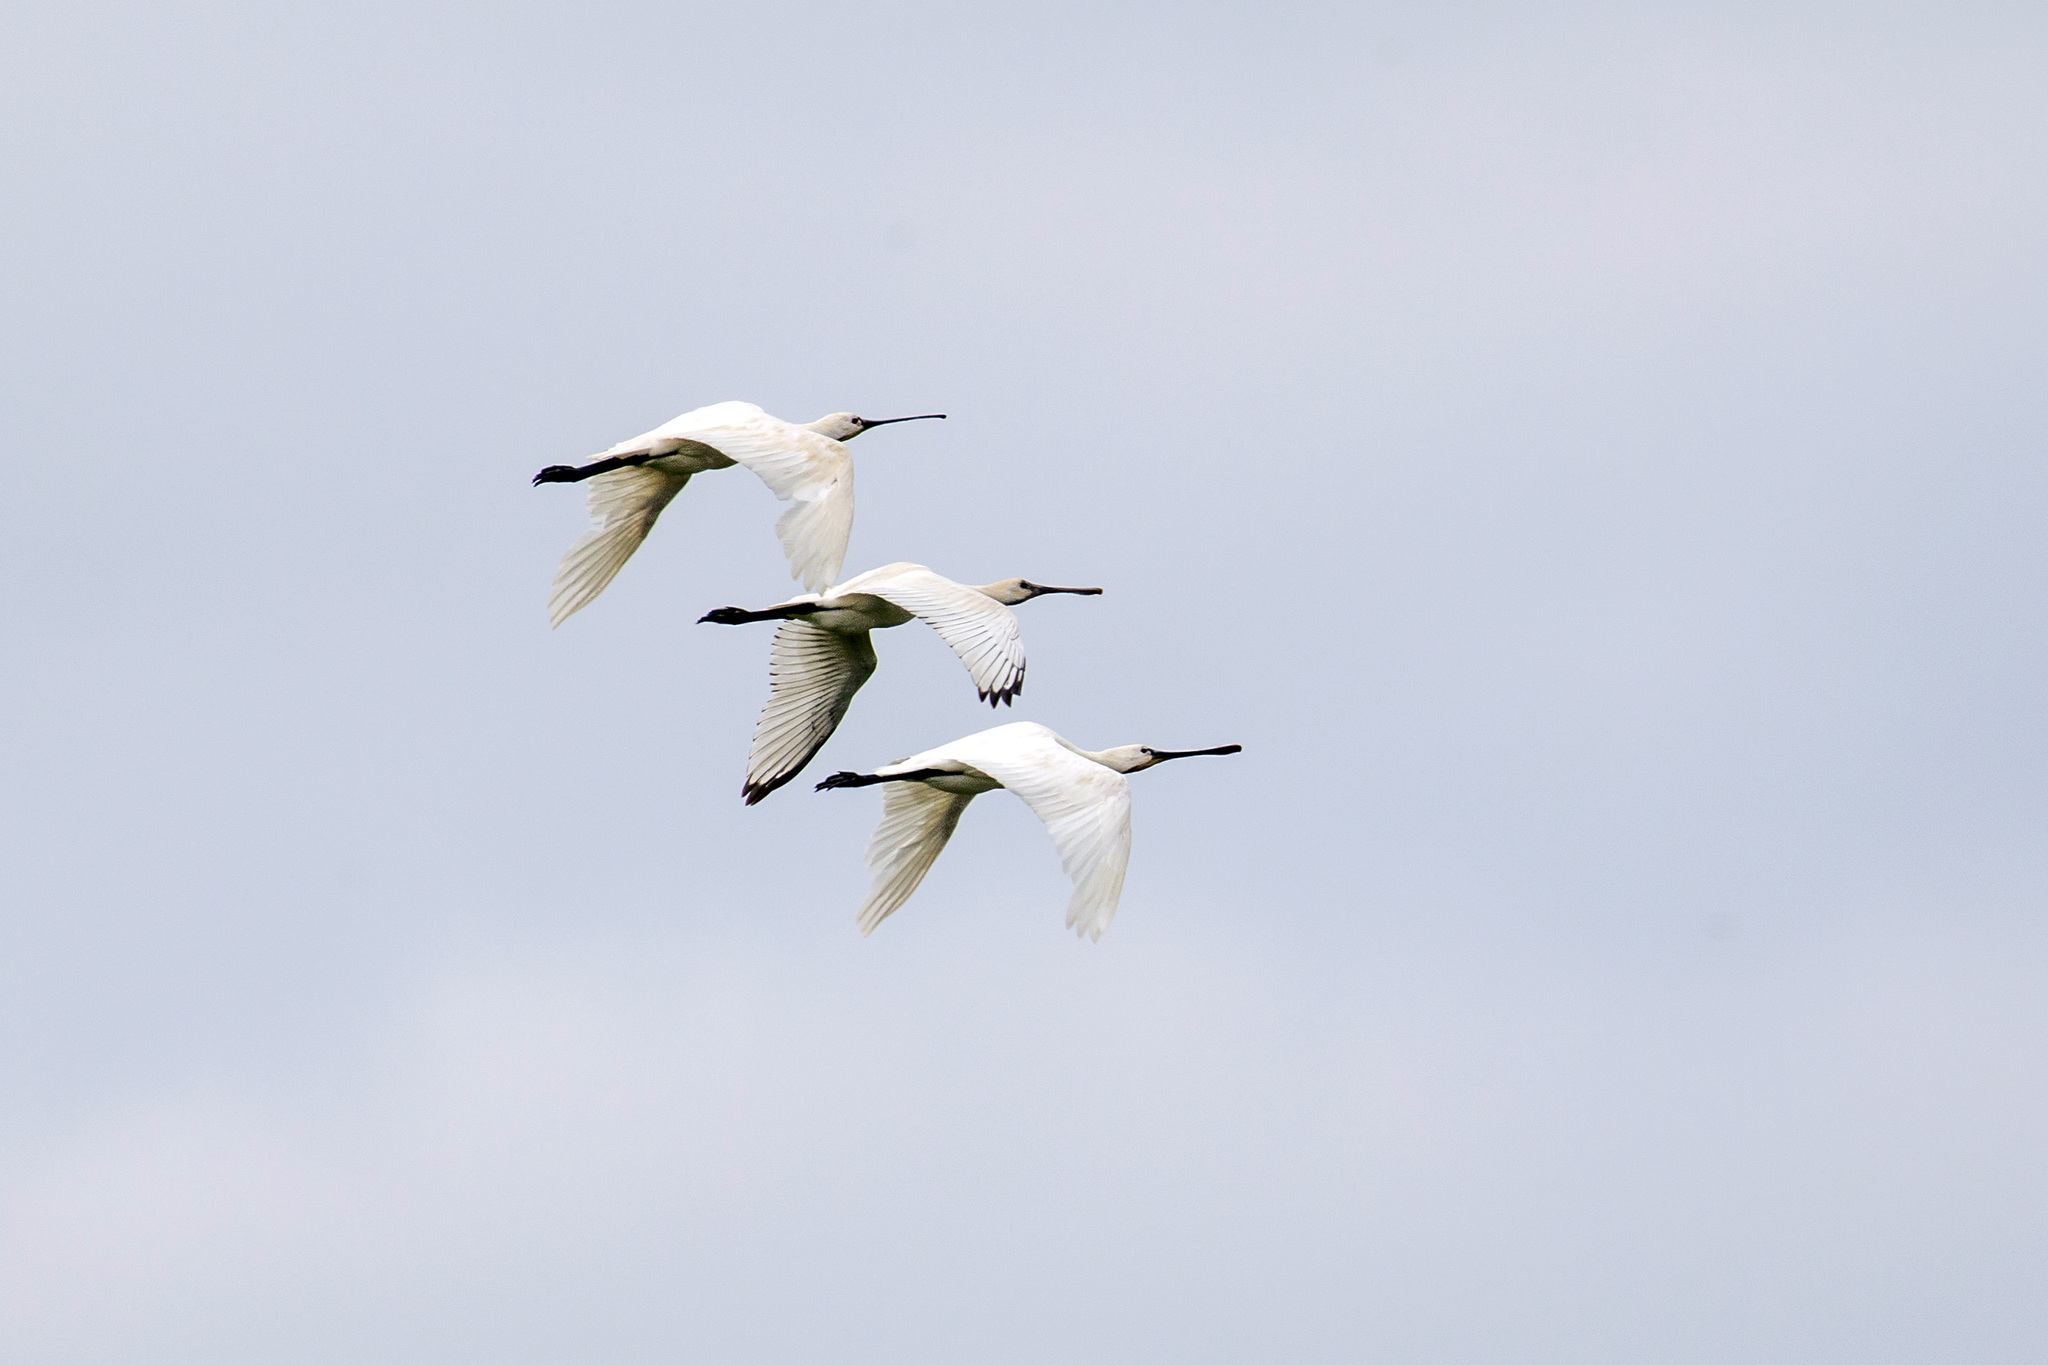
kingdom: Animalia
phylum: Chordata
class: Aves
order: Pelecaniformes
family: Threskiornithidae
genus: Platalea
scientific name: Platalea leucorodia
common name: Eurasian spoonbill
